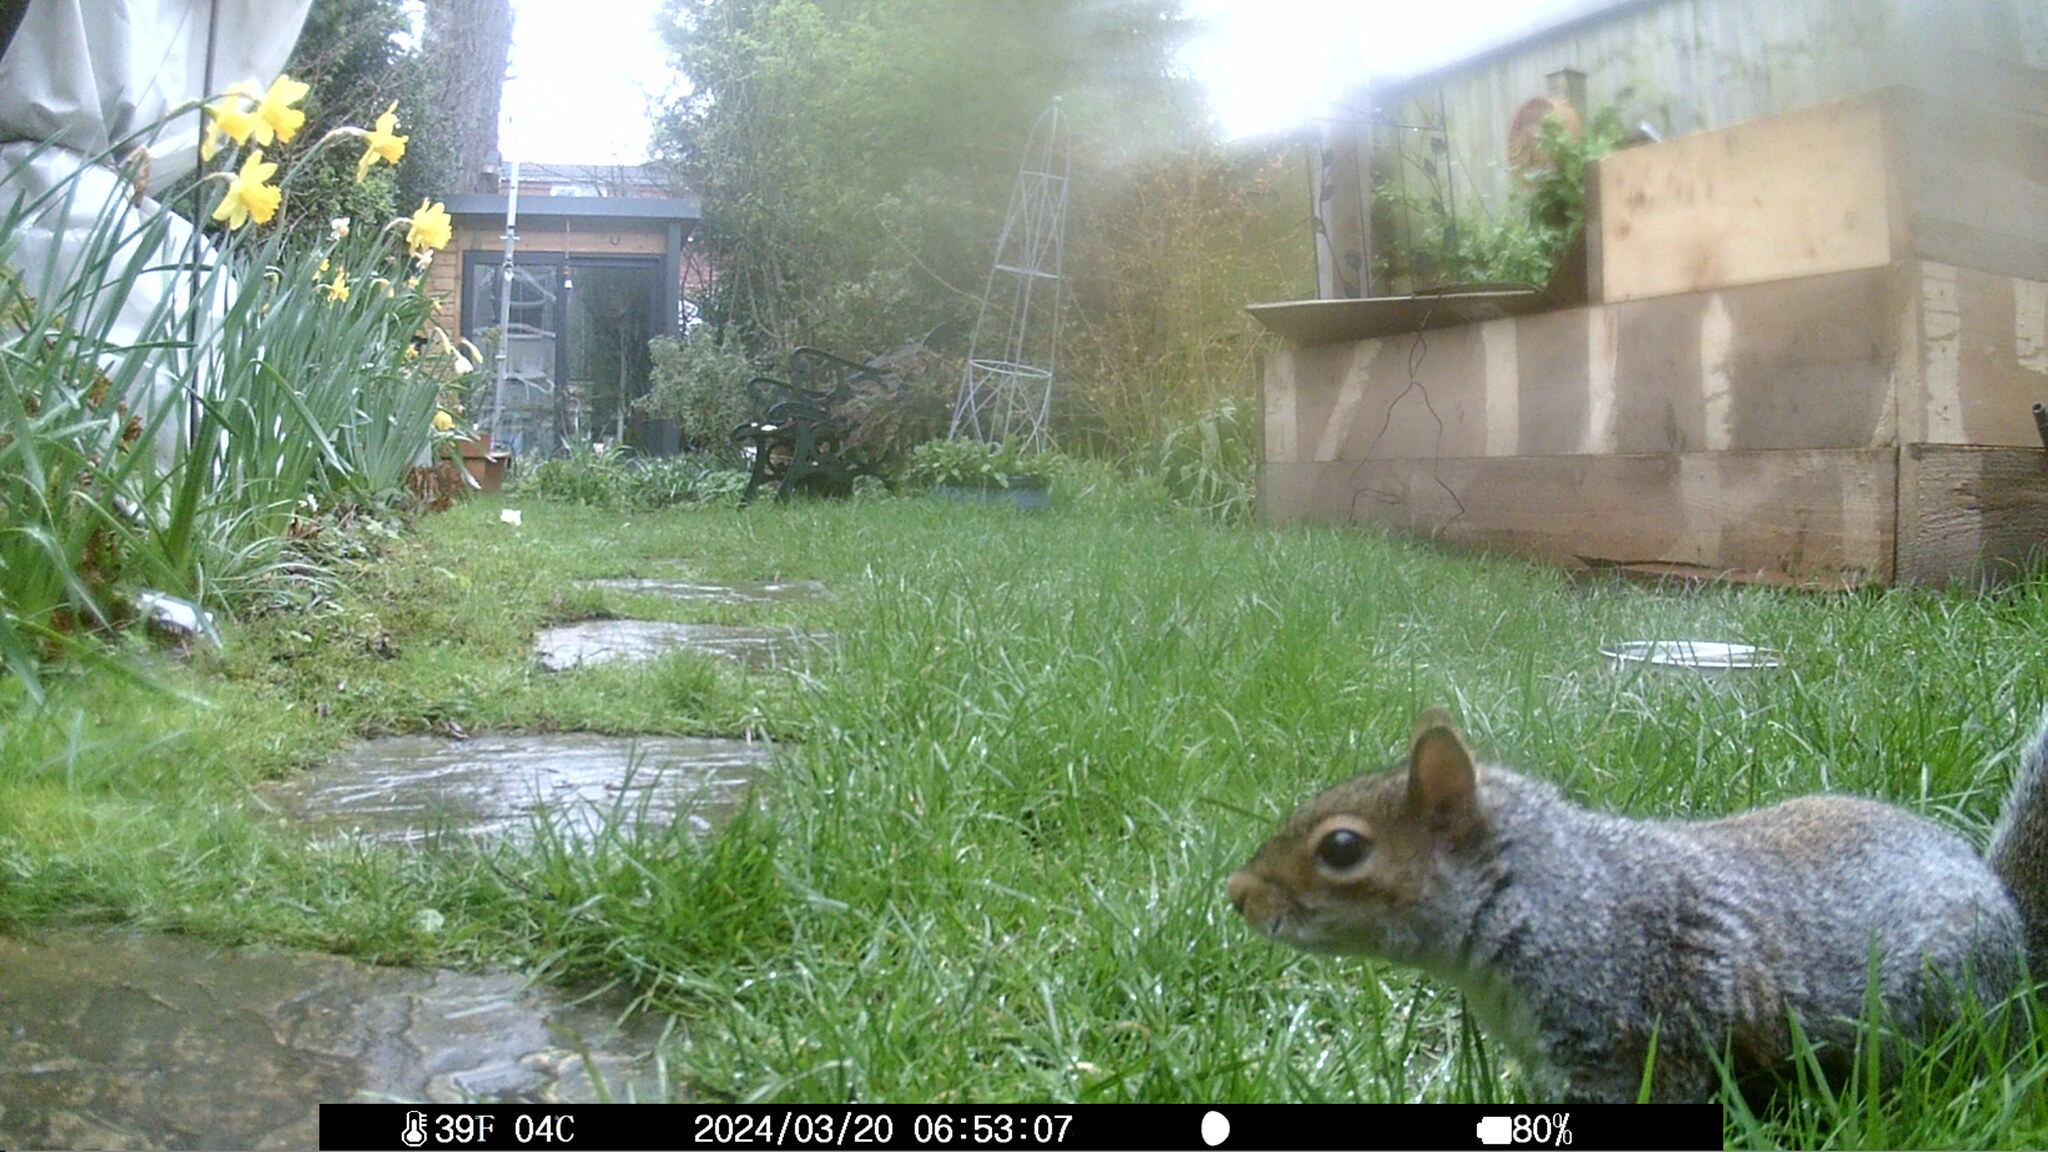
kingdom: Animalia
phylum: Chordata
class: Mammalia
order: Rodentia
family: Sciuridae
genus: Sciurus
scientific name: Sciurus carolinensis
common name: Eastern gray squirrel
